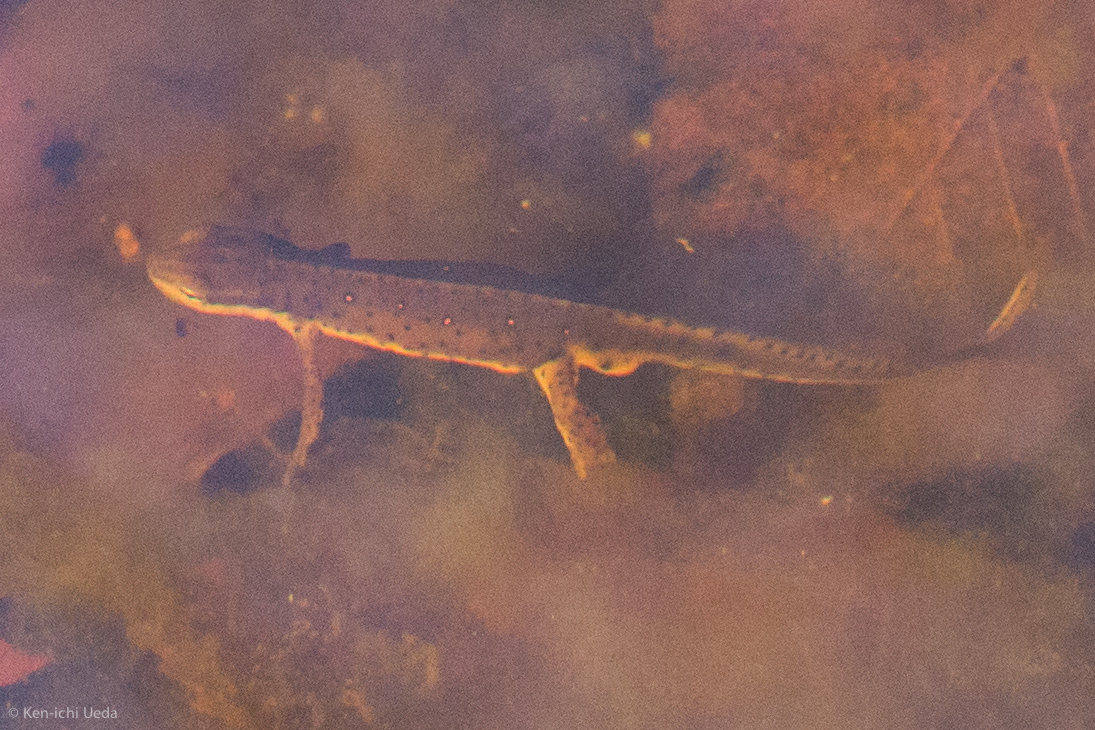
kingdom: Animalia
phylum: Chordata
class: Amphibia
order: Caudata
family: Salamandridae
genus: Notophthalmus
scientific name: Notophthalmus viridescens
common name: Eastern newt
